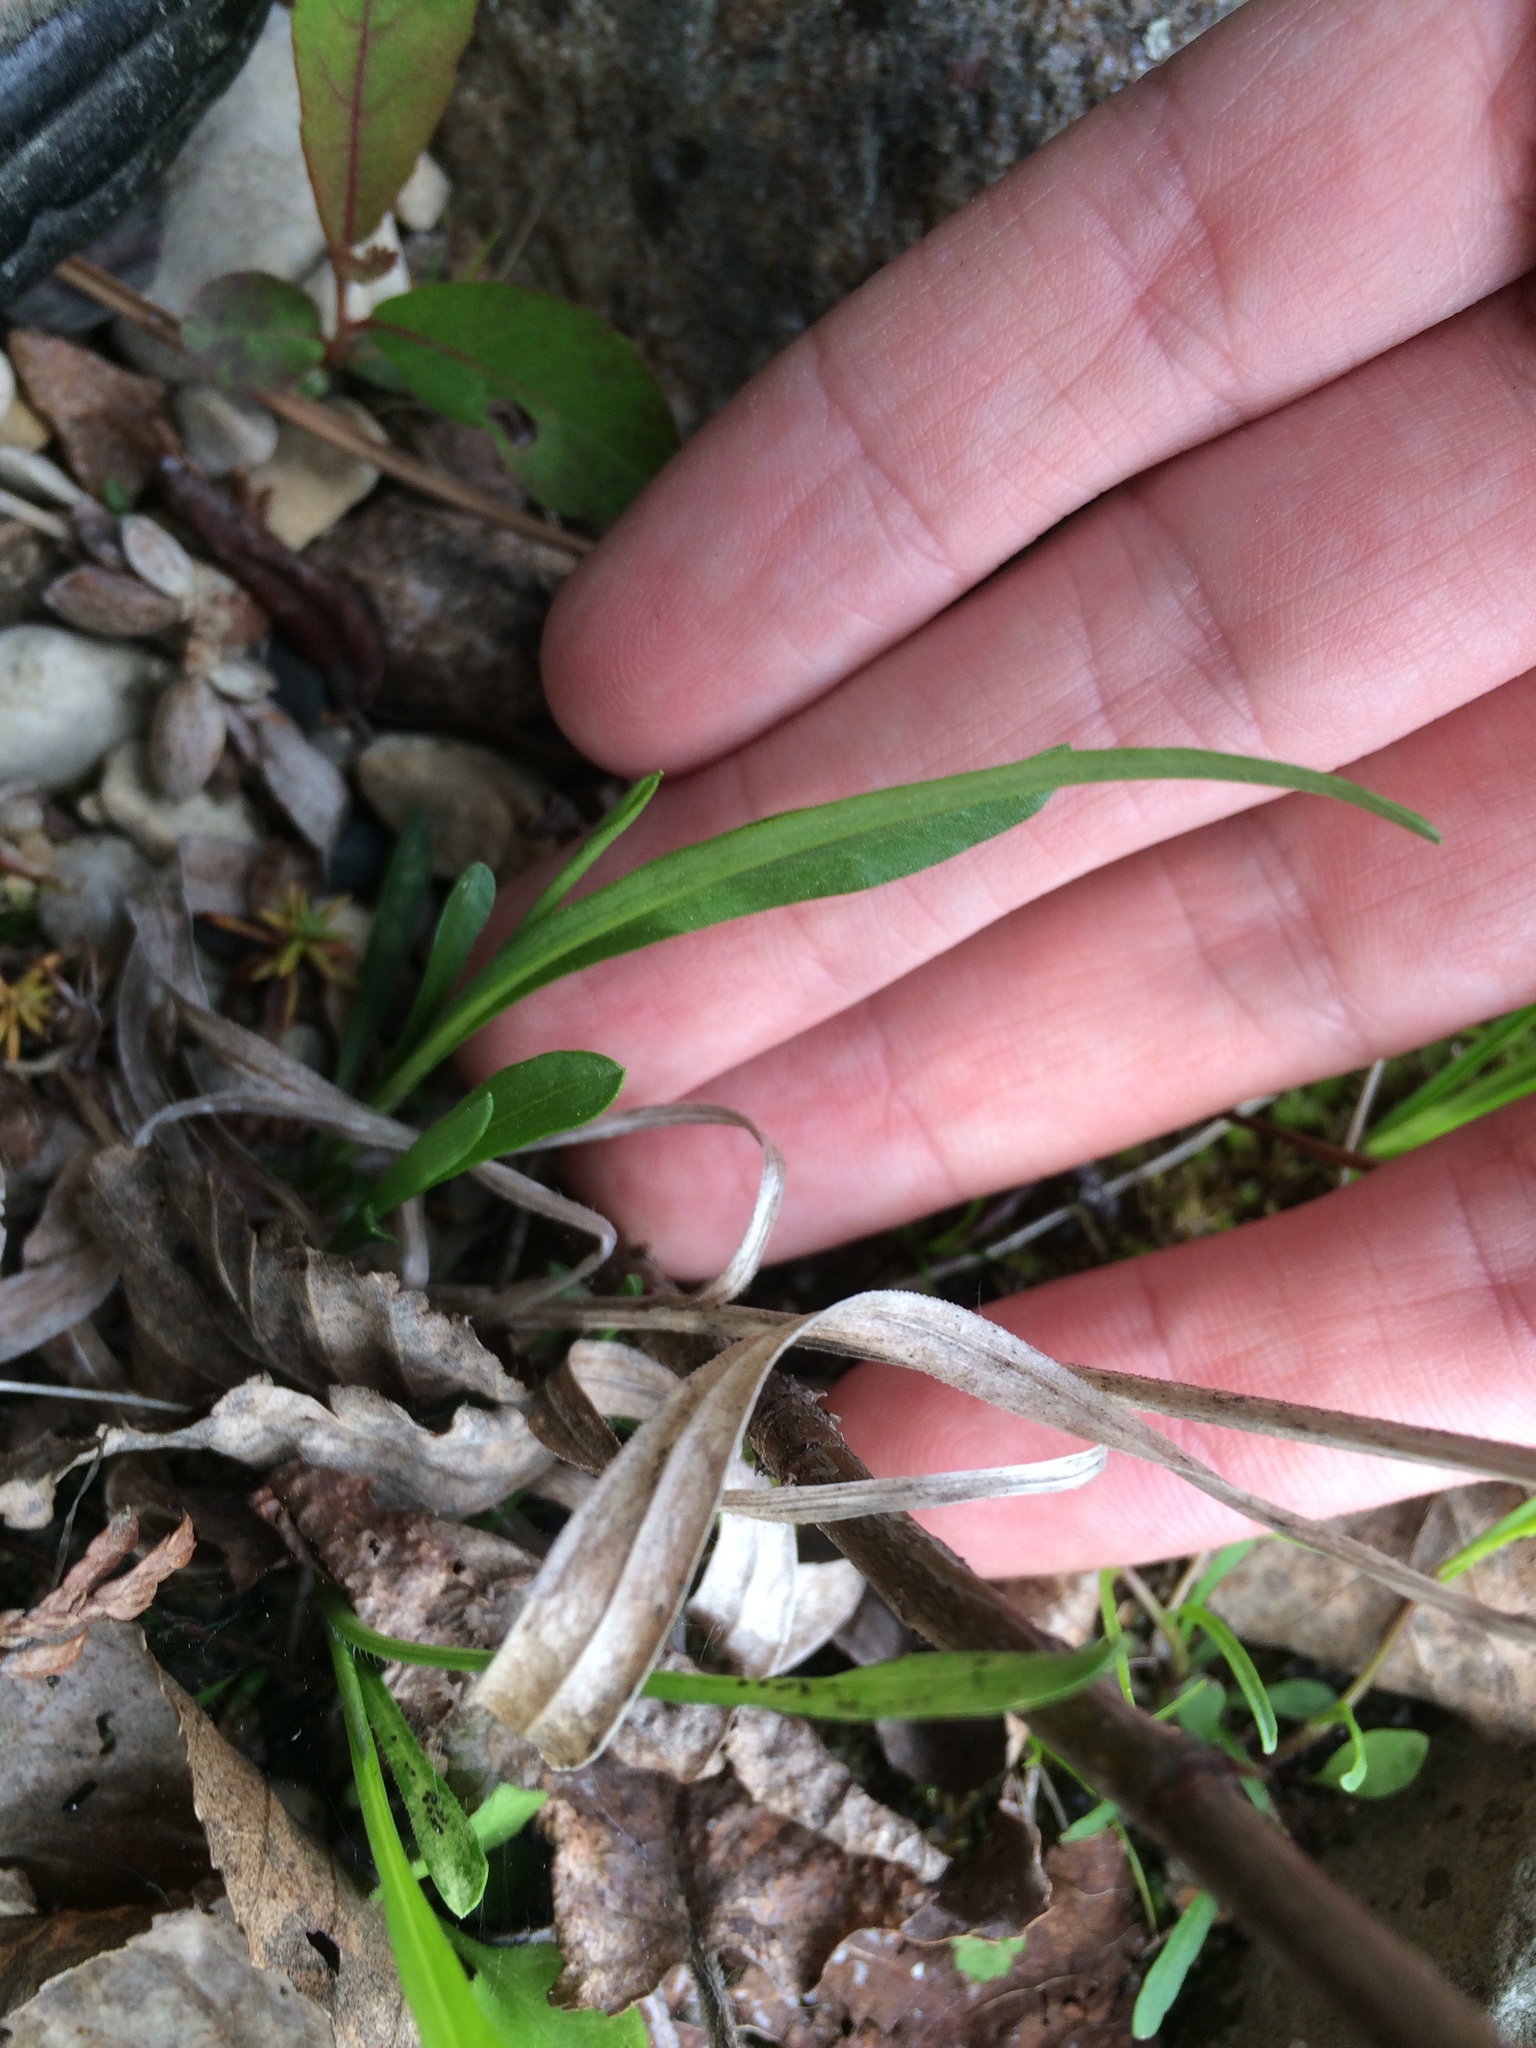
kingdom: Plantae
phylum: Tracheophyta
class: Magnoliopsida
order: Asterales
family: Asteraceae
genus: Solidago
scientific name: Solidago ptarmicoides
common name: White flat-top goldenrod
